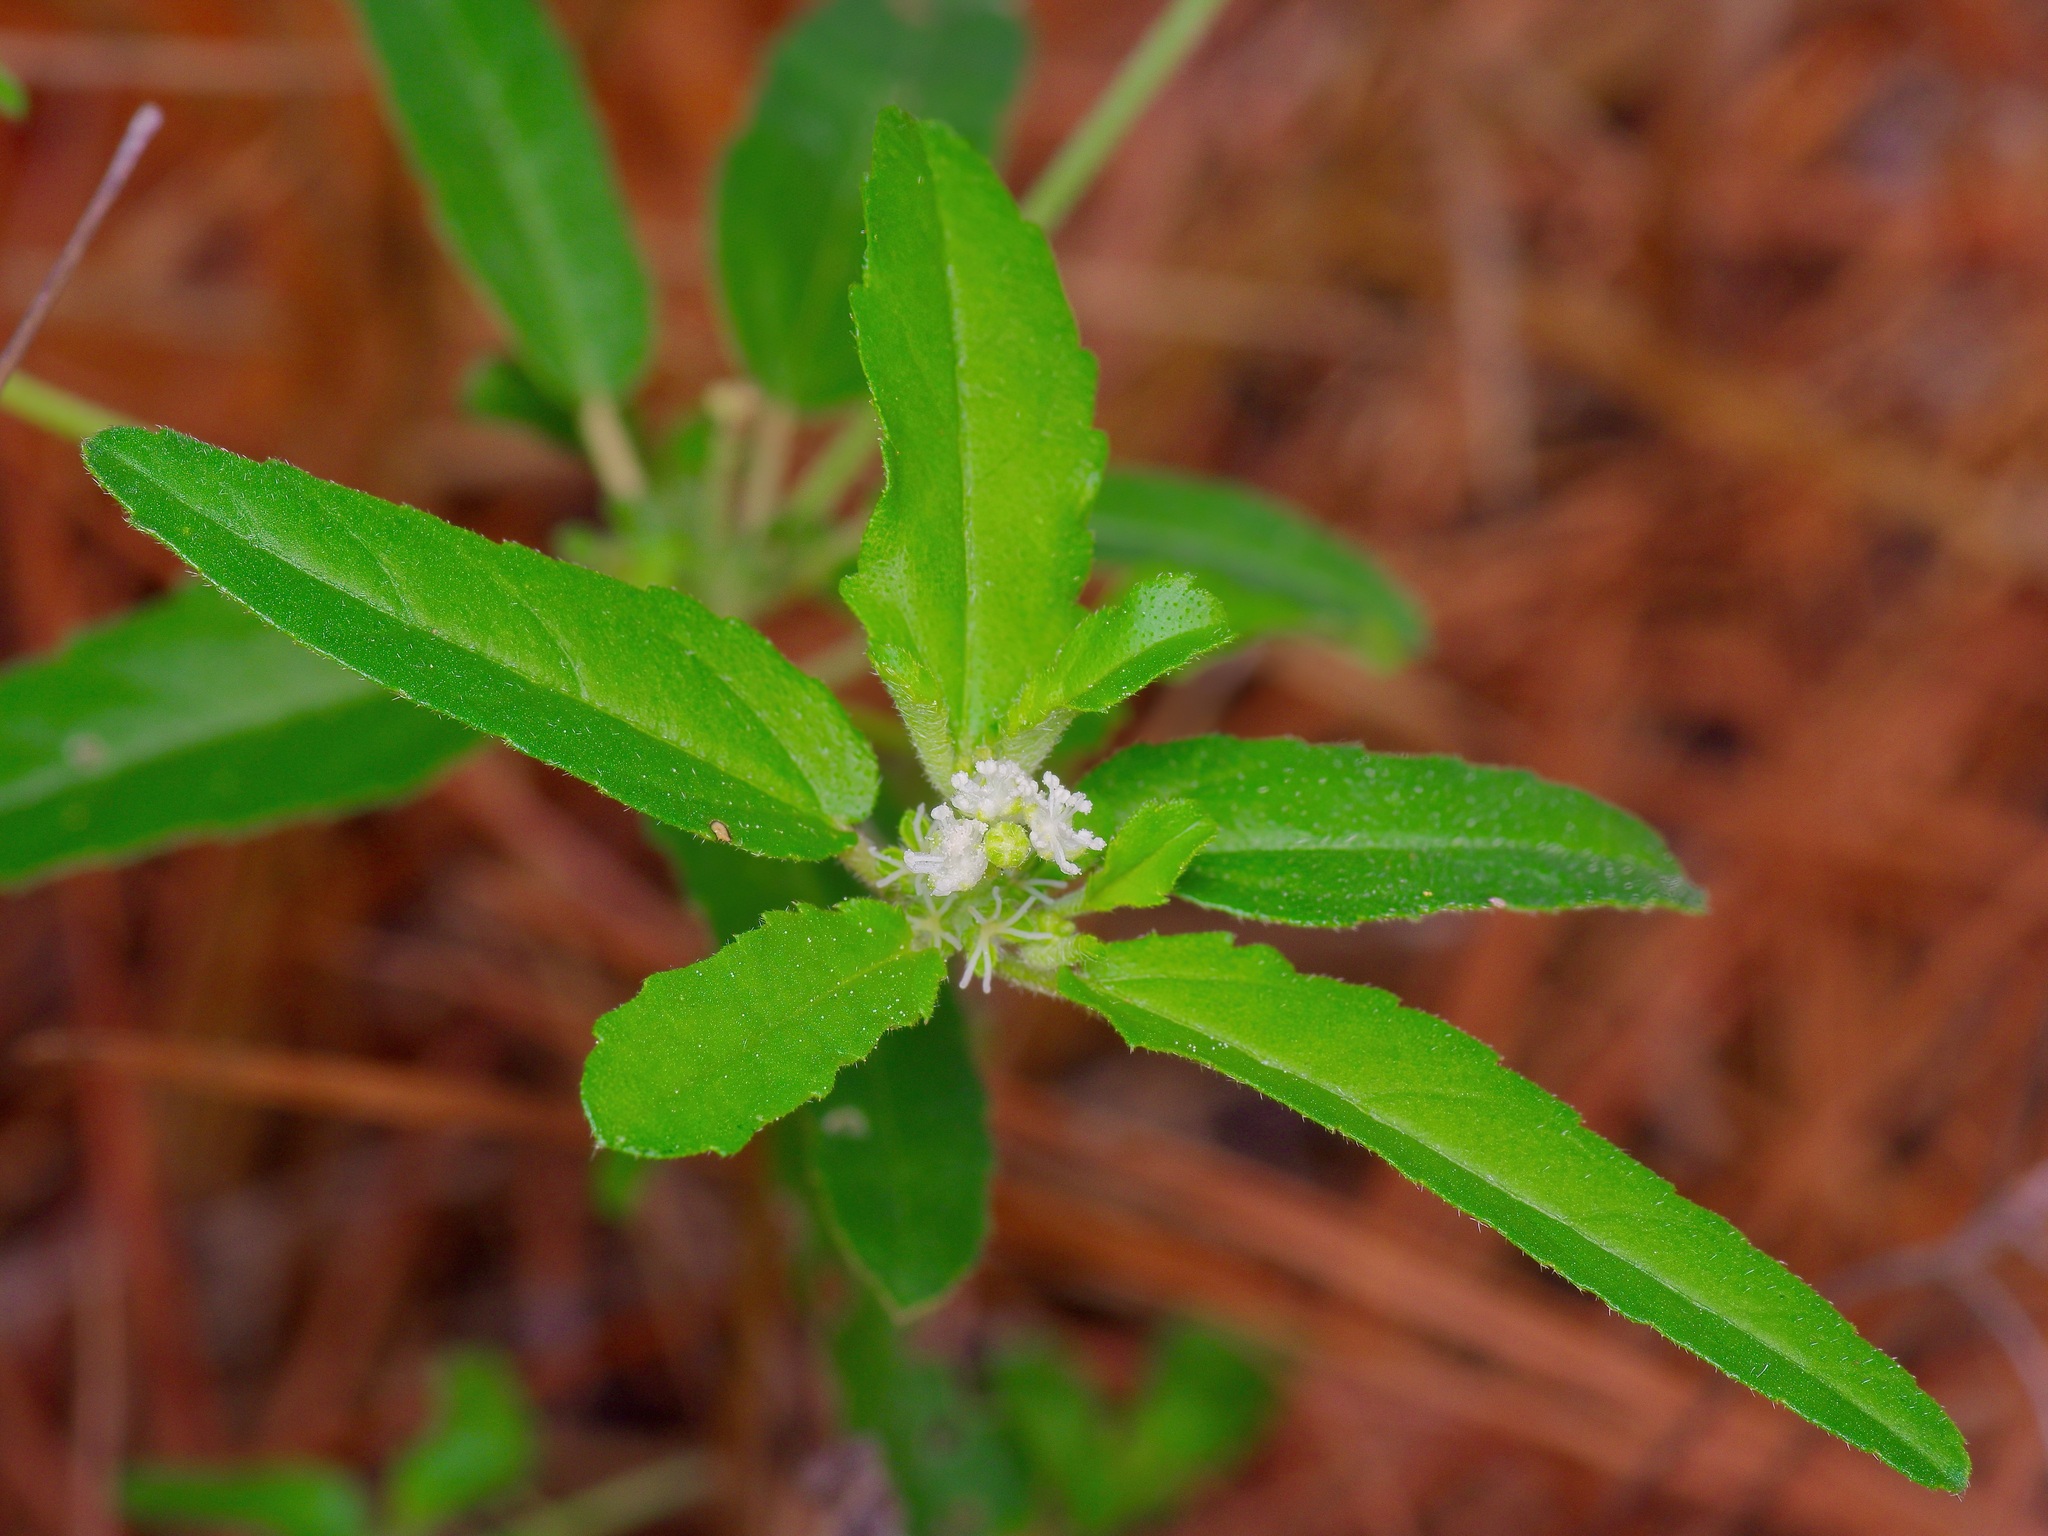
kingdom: Plantae
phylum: Tracheophyta
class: Magnoliopsida
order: Malpighiales
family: Euphorbiaceae
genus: Croton
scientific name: Croton glandulosus
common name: Tropic croton
